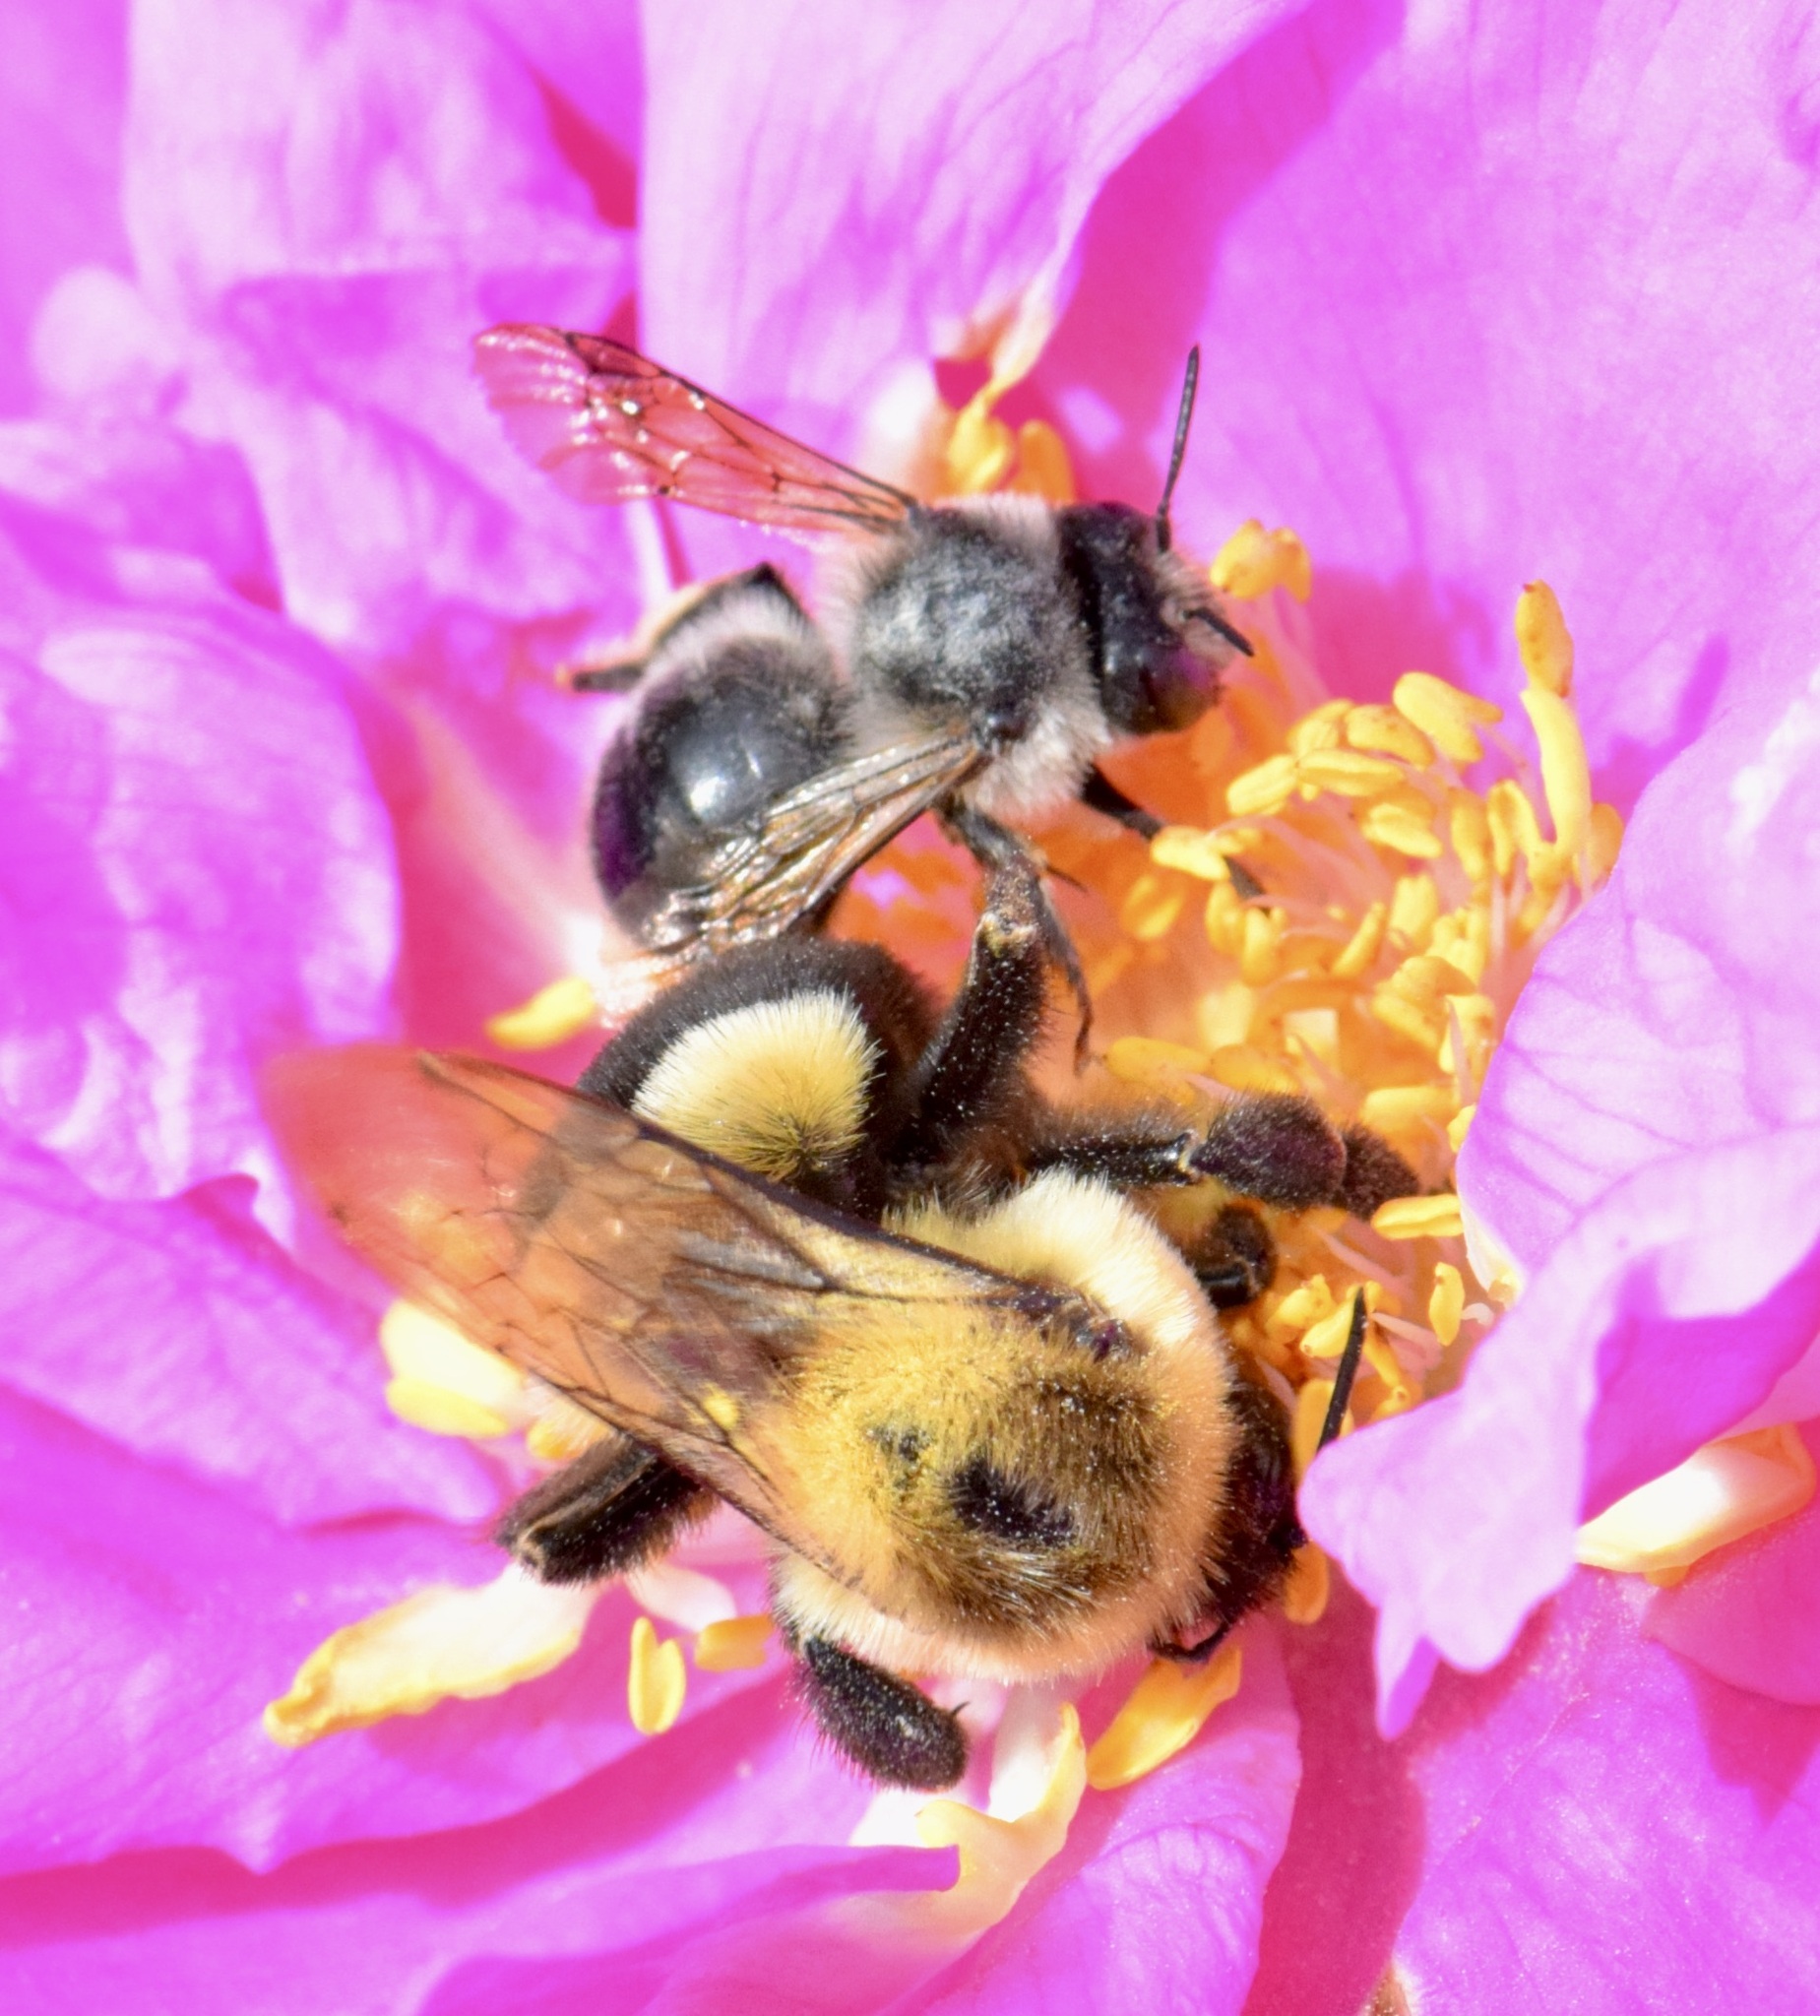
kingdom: Animalia
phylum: Arthropoda
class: Insecta
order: Hymenoptera
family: Apidae
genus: Anthophora
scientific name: Anthophora terminalis
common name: Orange-tipped wood-digger bee
